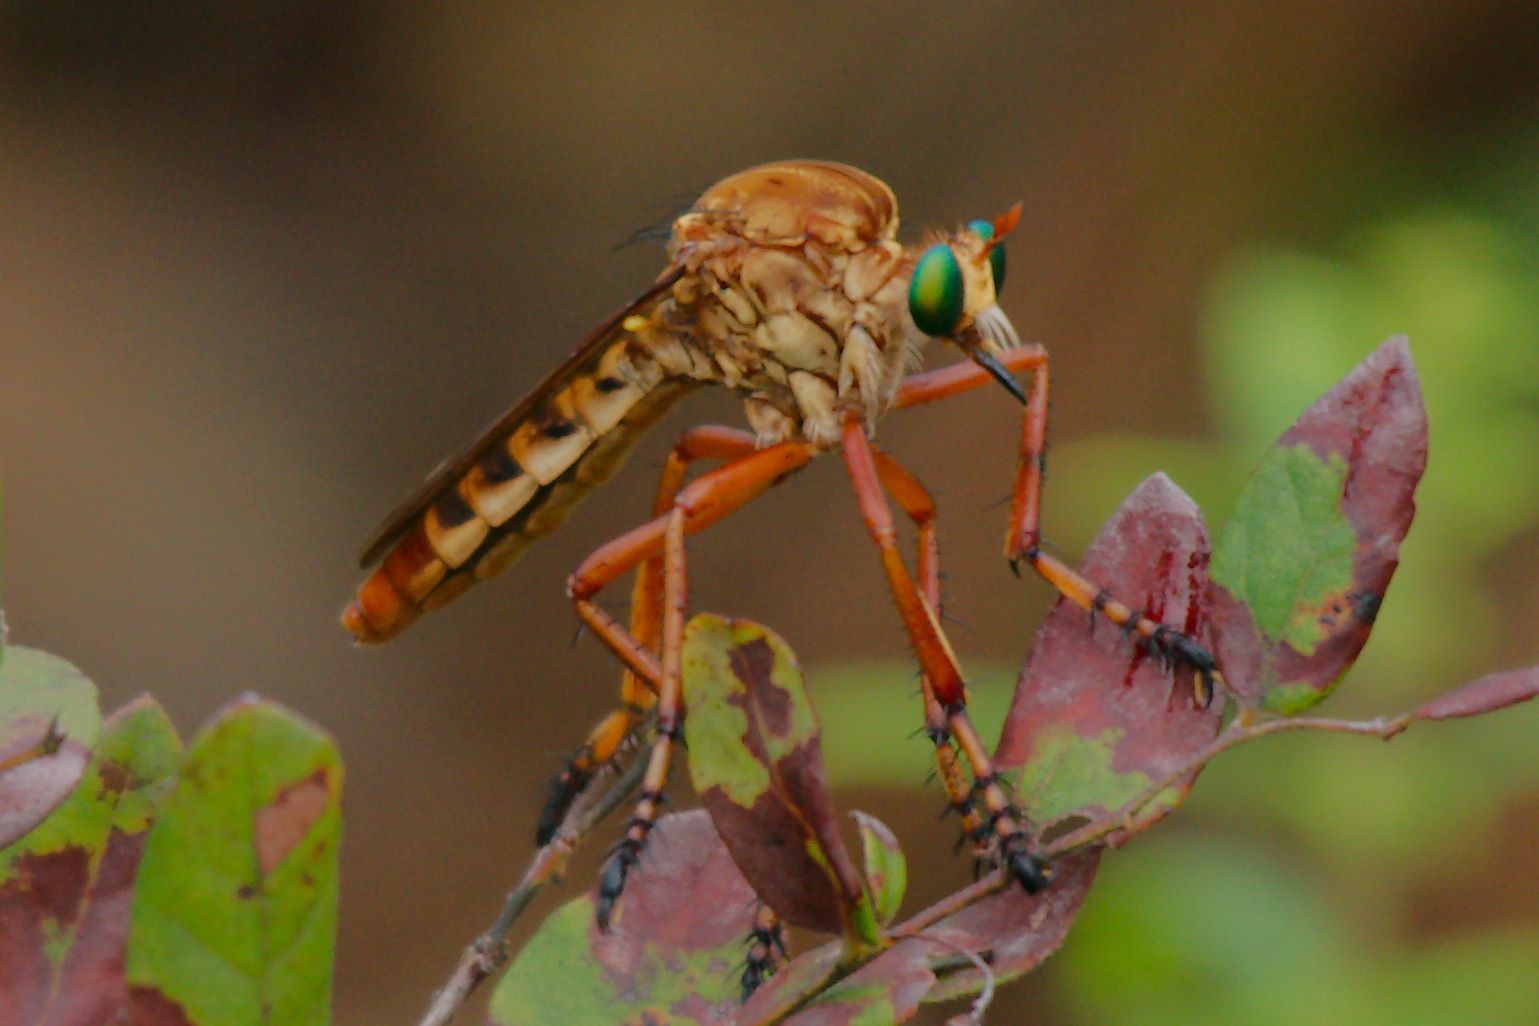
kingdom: Animalia
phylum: Arthropoda
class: Insecta
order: Diptera
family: Asilidae
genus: Diogmites
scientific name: Diogmites crudelis
